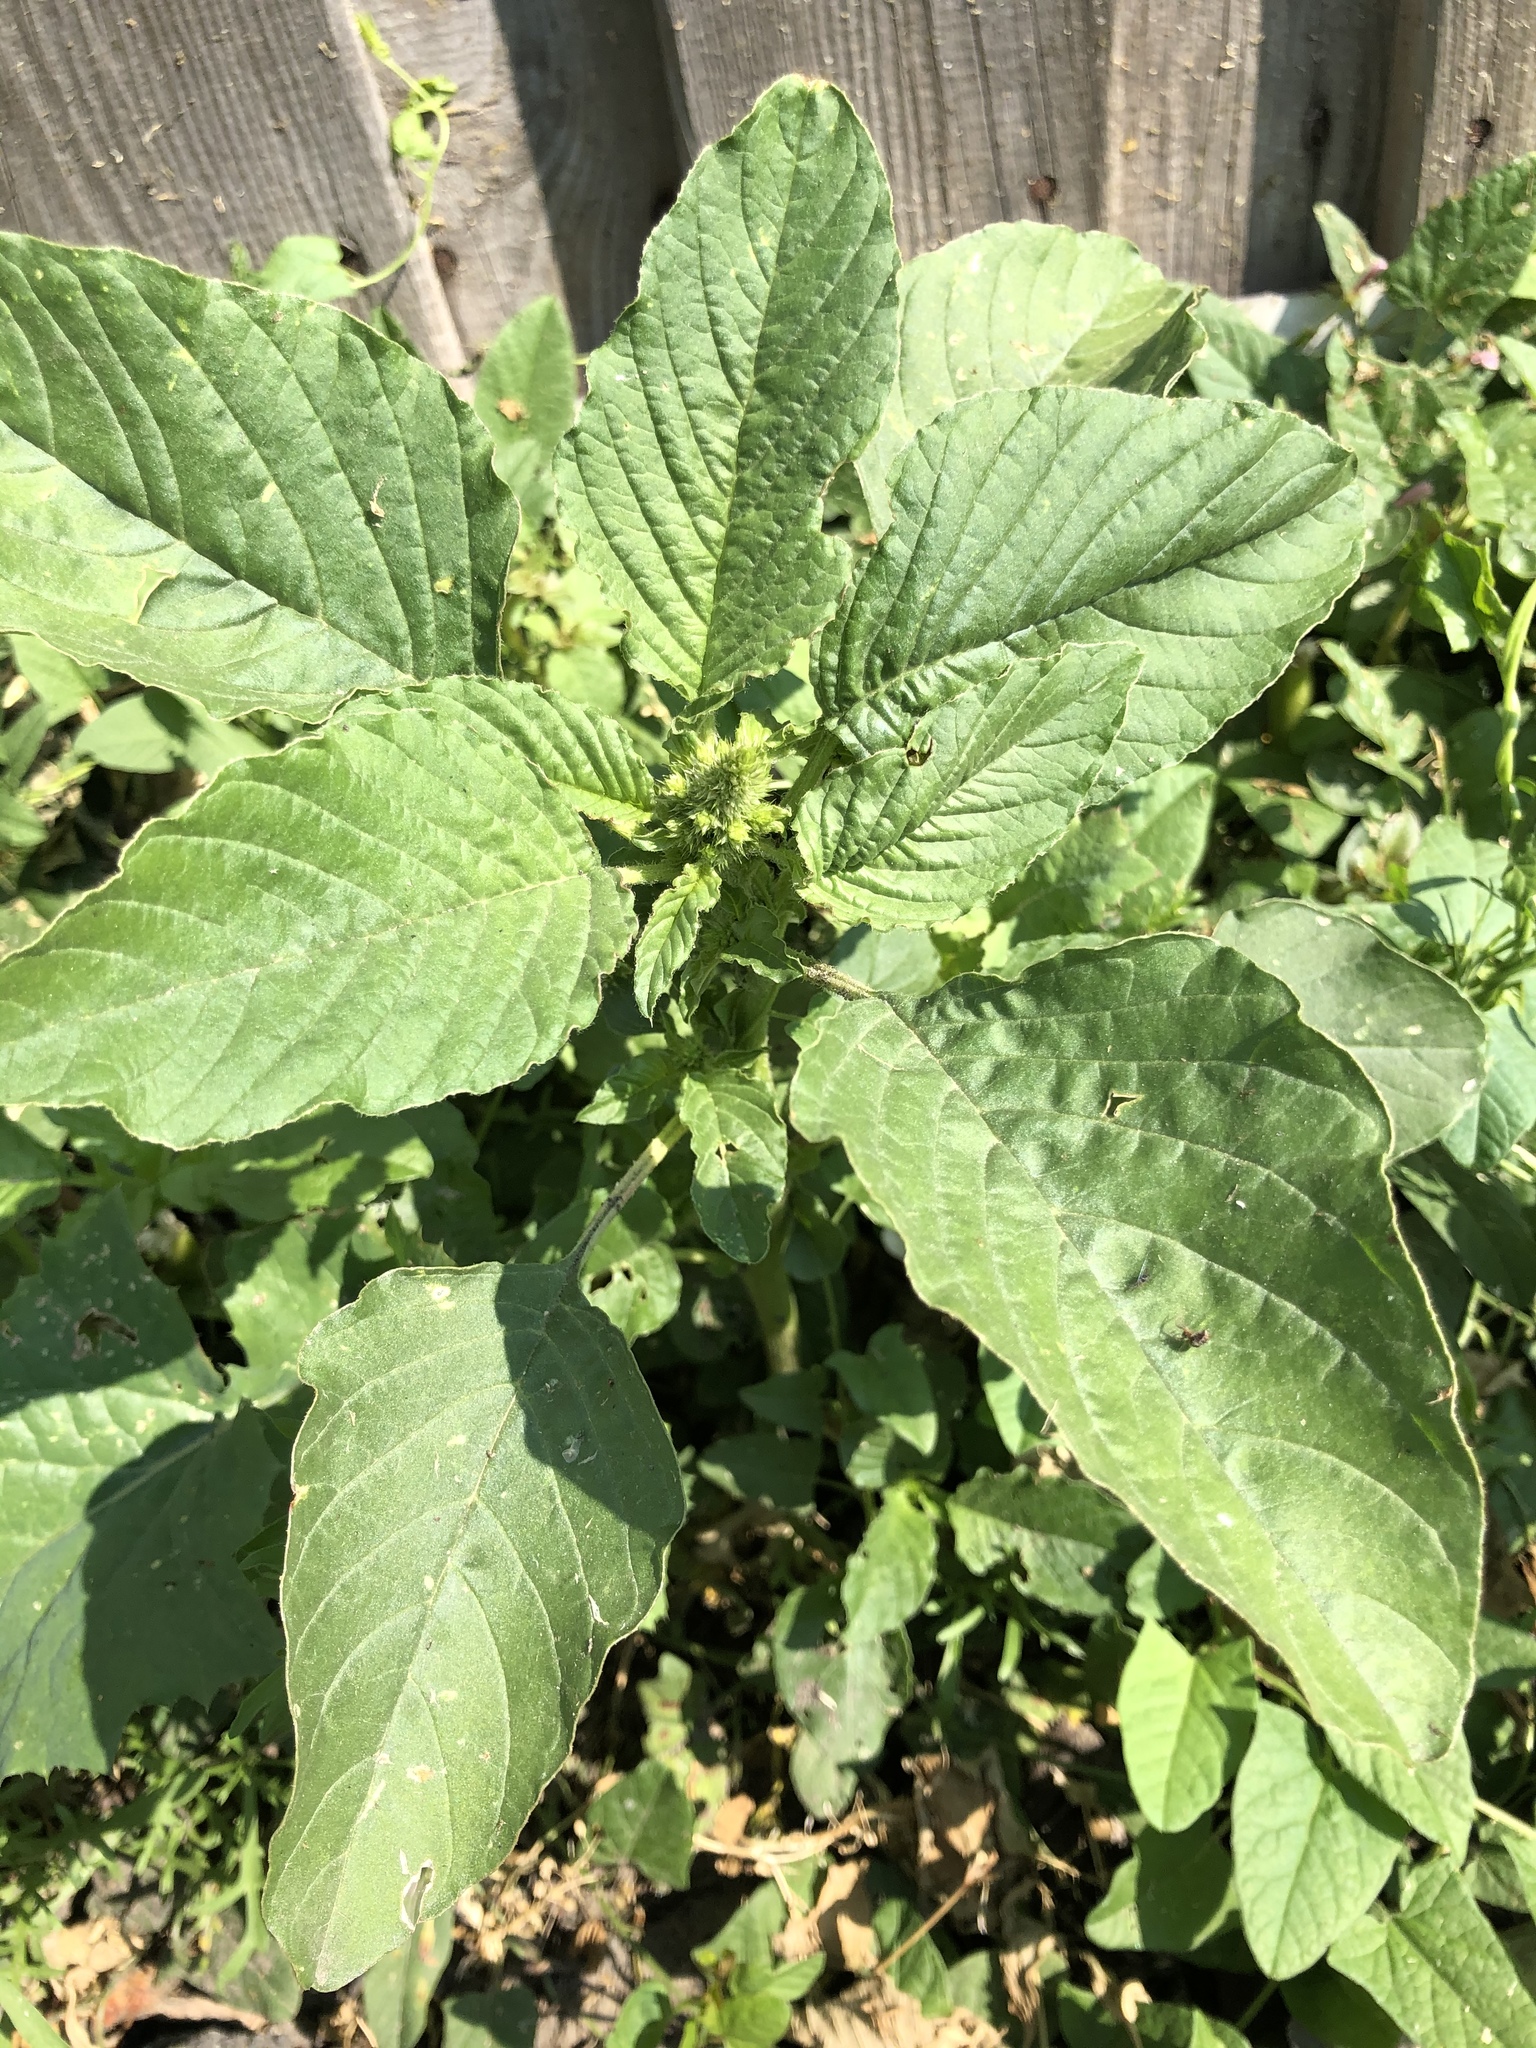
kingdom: Plantae
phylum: Tracheophyta
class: Magnoliopsida
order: Caryophyllales
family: Amaranthaceae
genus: Amaranthus
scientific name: Amaranthus retroflexus
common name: Redroot amaranth
